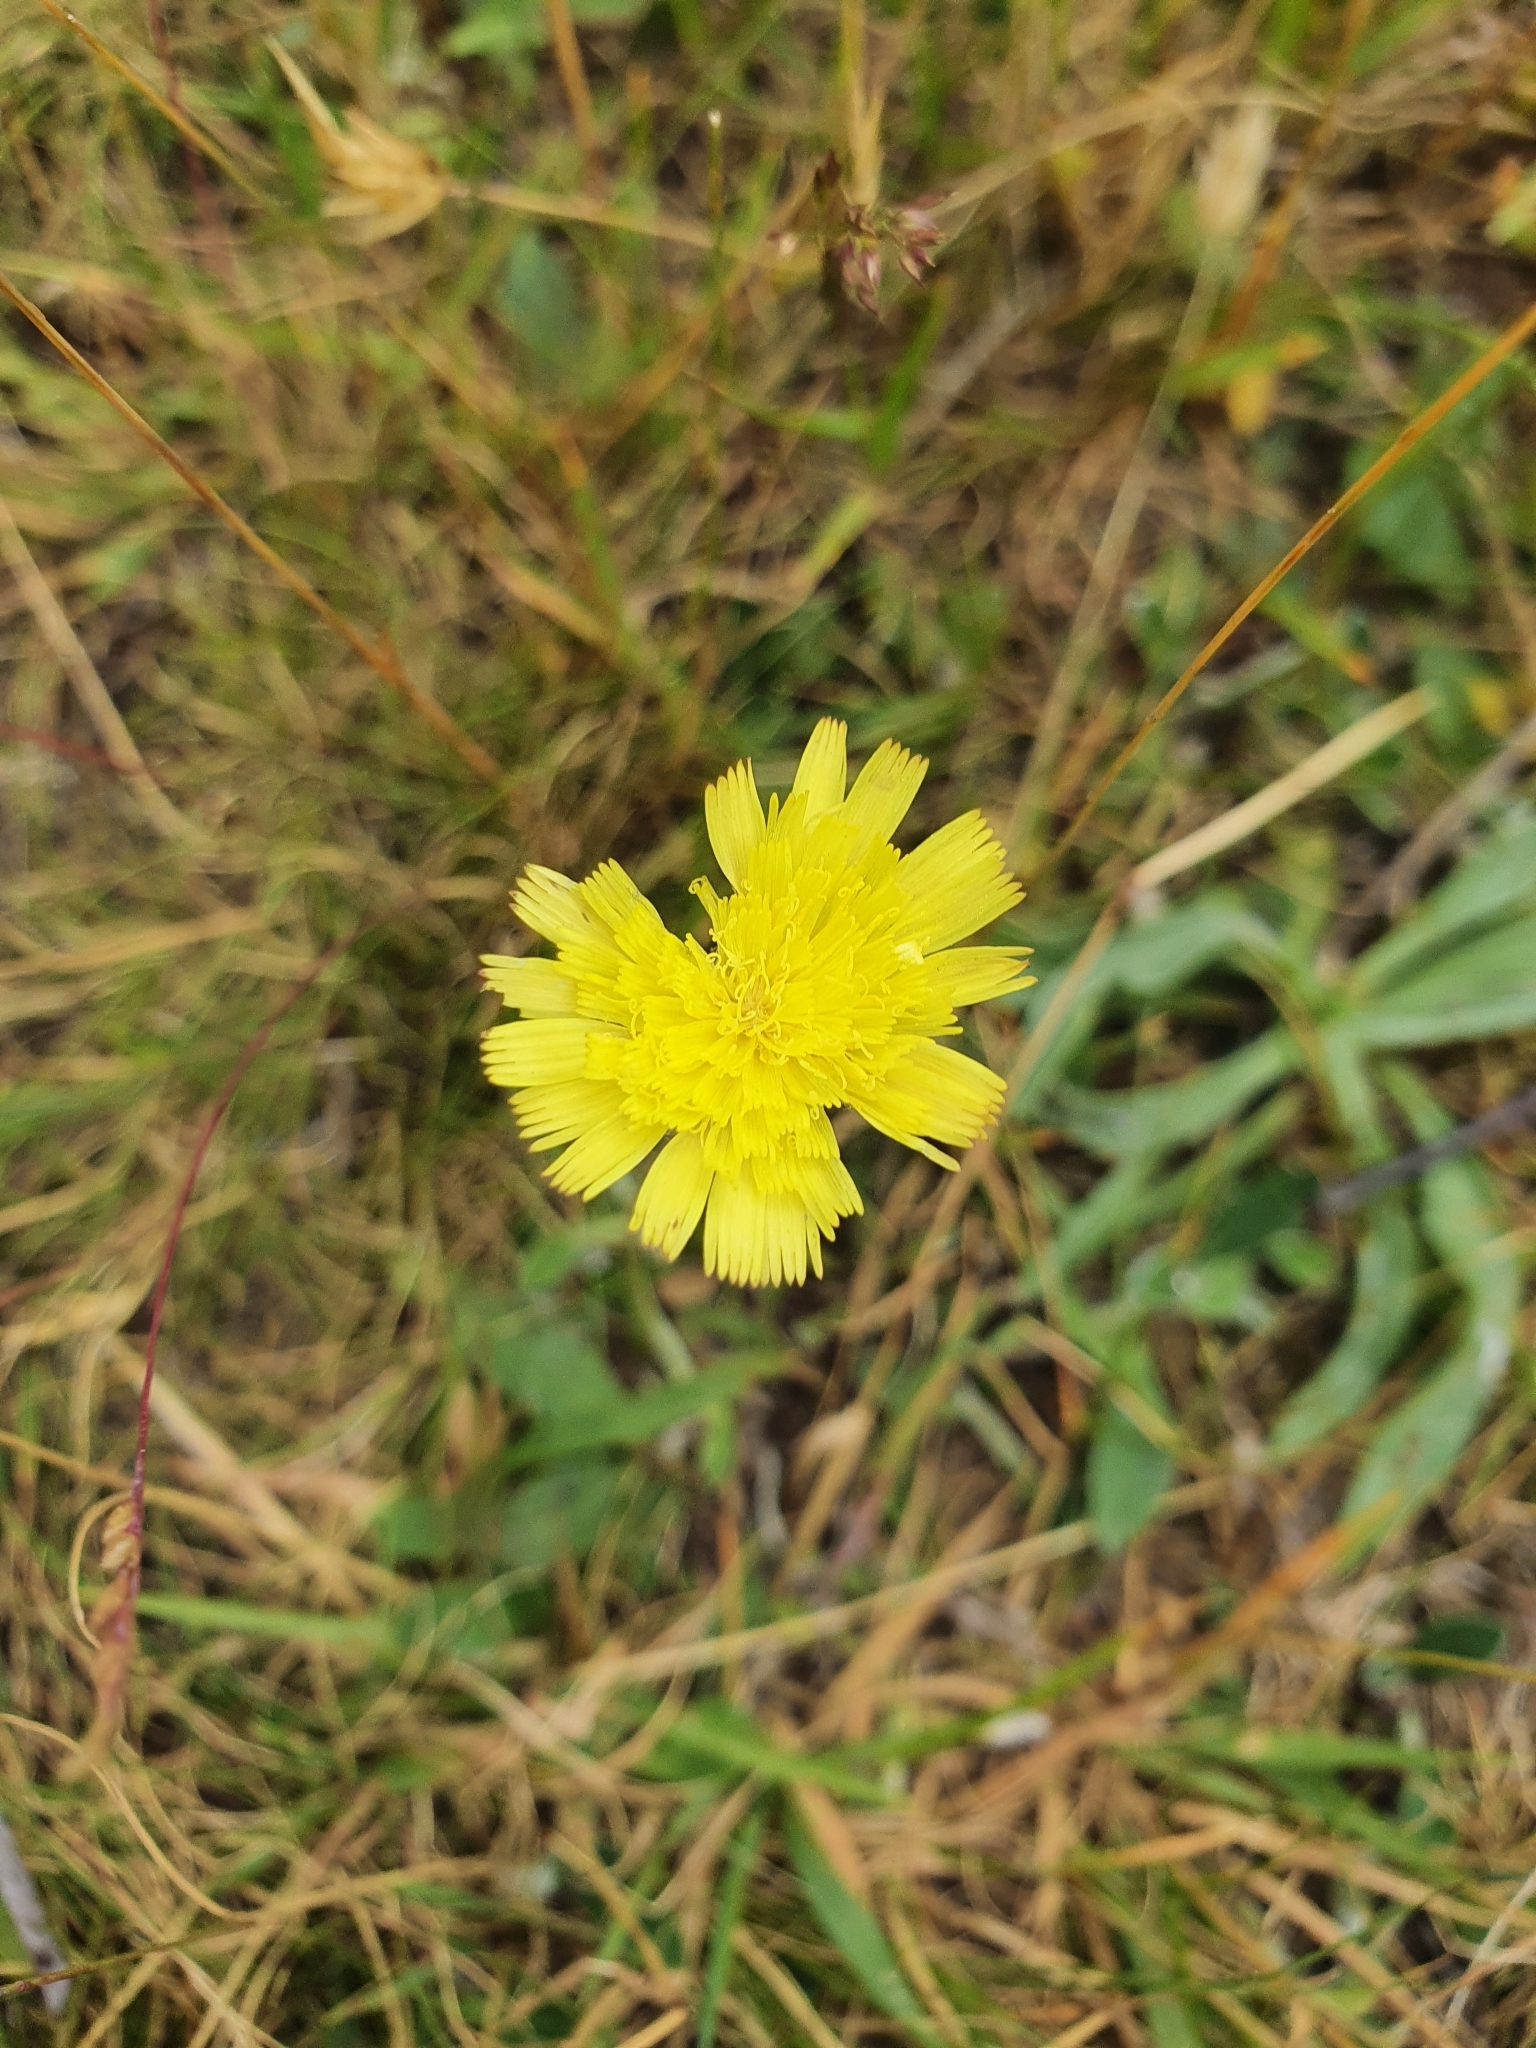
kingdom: Plantae
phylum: Tracheophyta
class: Magnoliopsida
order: Asterales
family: Asteraceae
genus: Pilosella
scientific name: Pilosella officinarum
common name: Mouse-ear hawkweed
